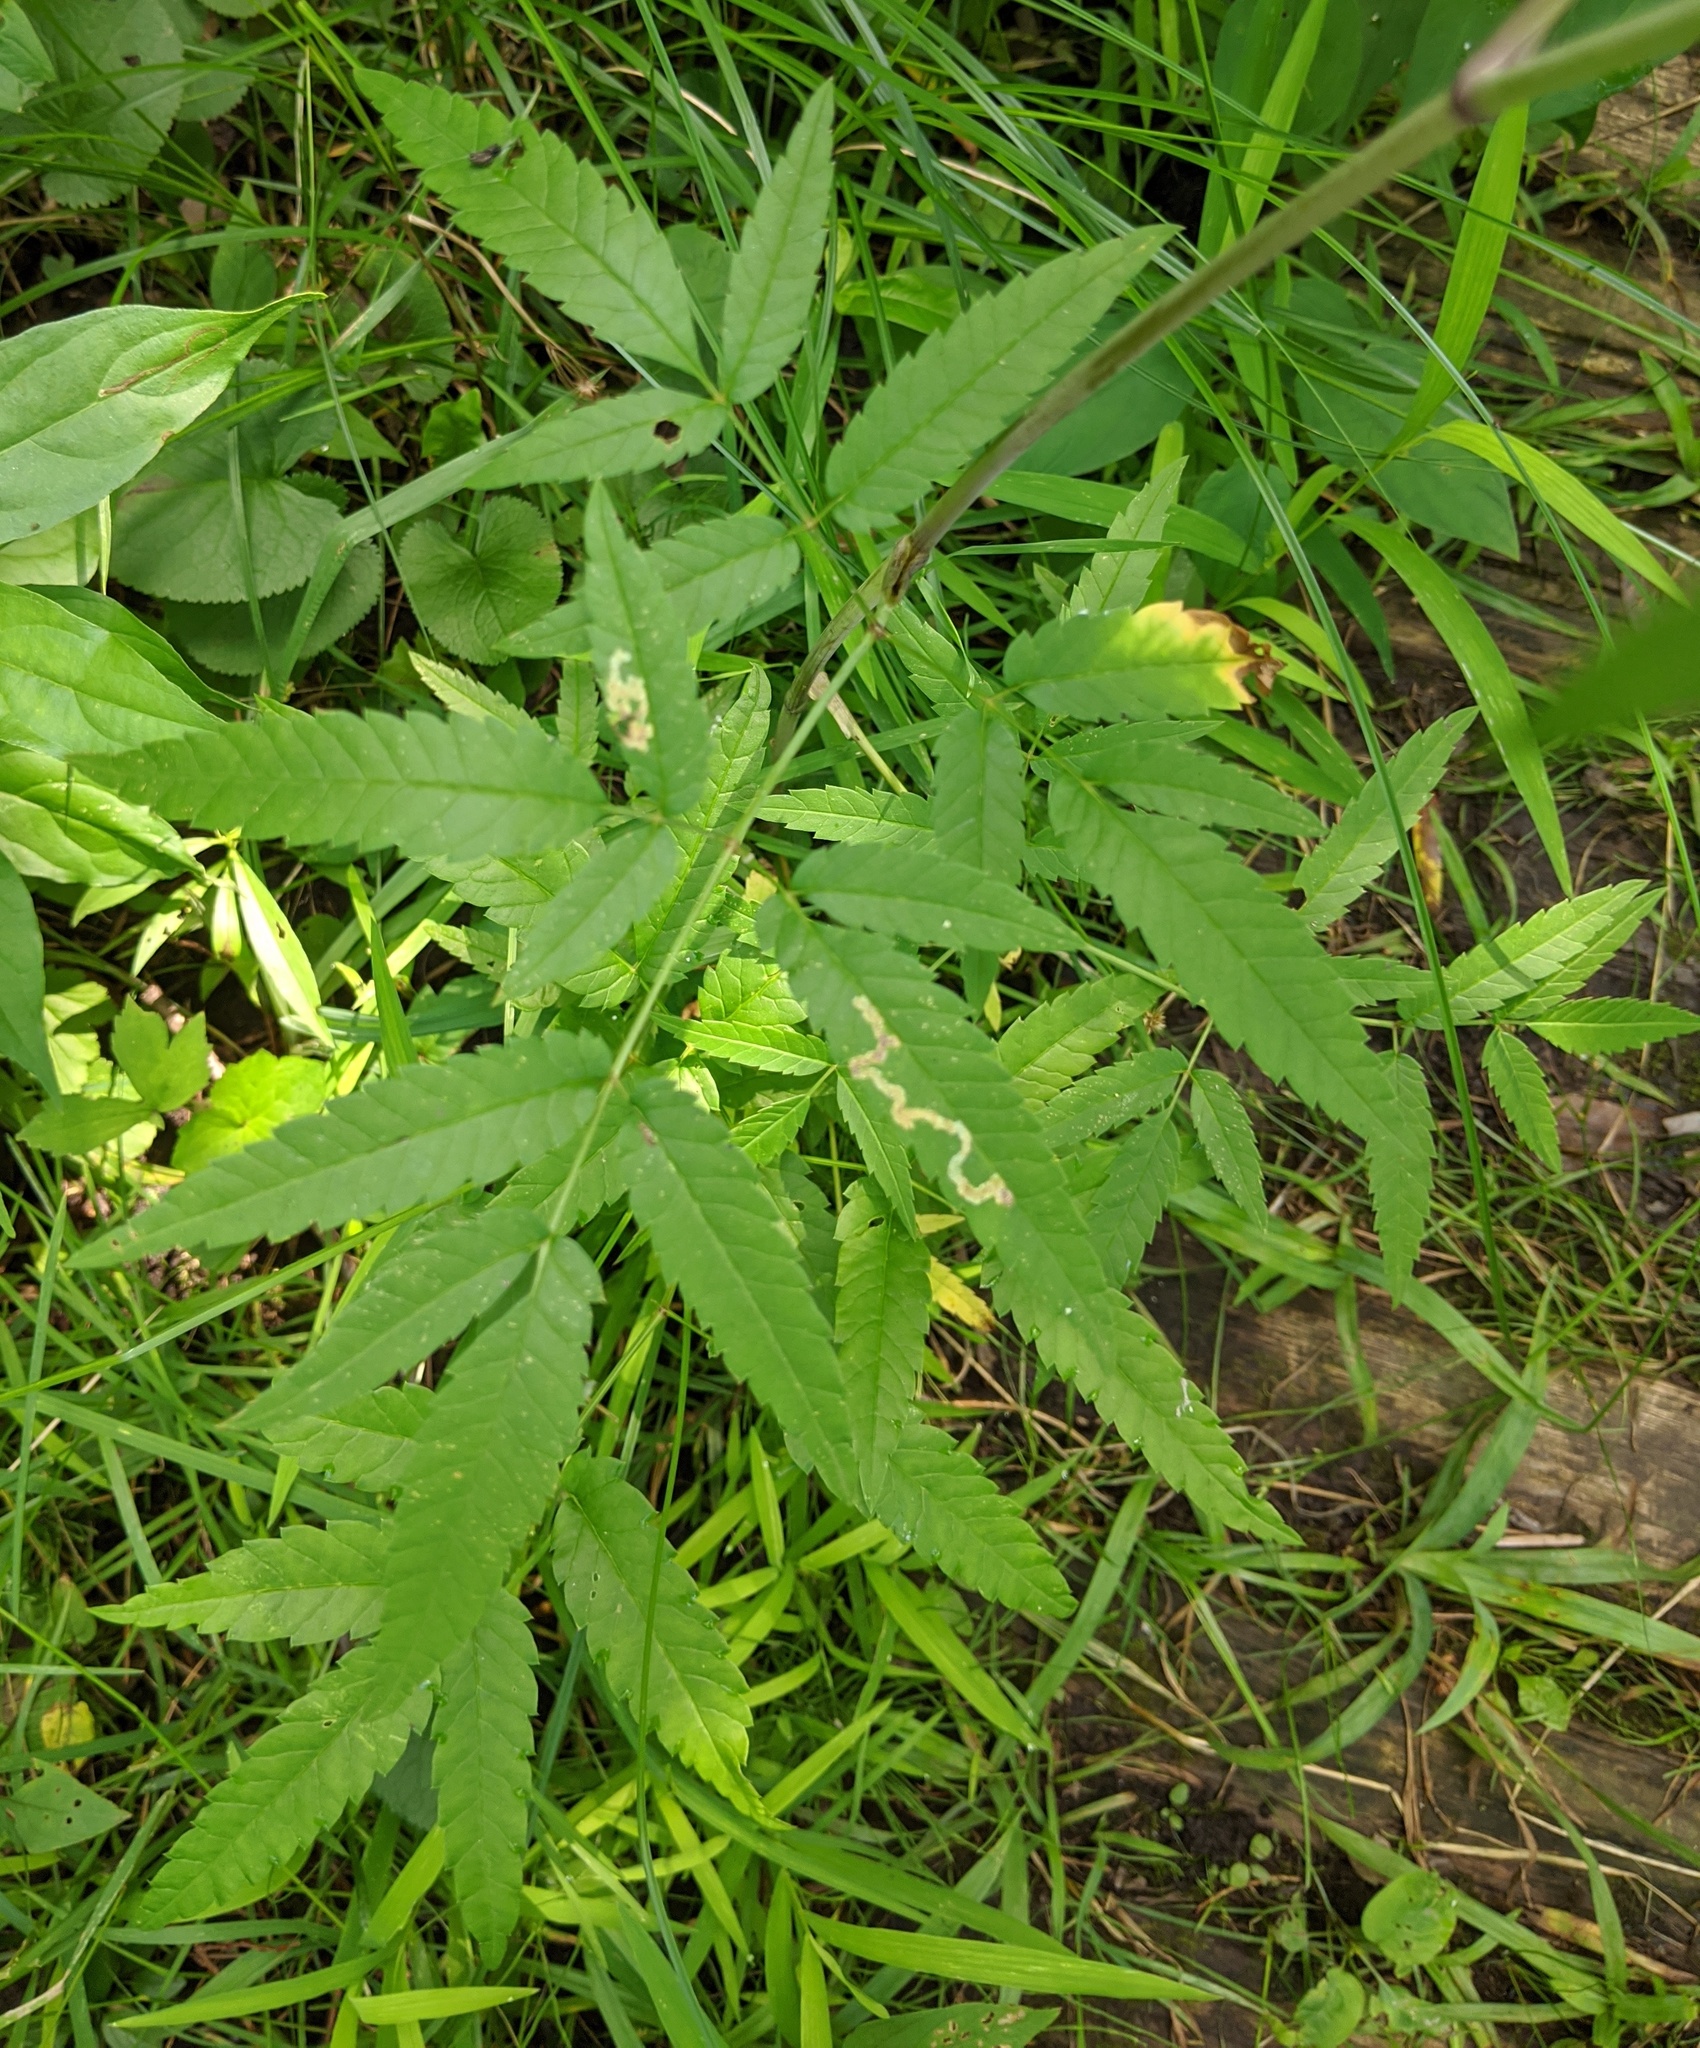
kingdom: Plantae
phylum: Tracheophyta
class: Magnoliopsida
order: Apiales
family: Apiaceae
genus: Cicuta
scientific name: Cicuta maculata
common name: Spotted cowbane
